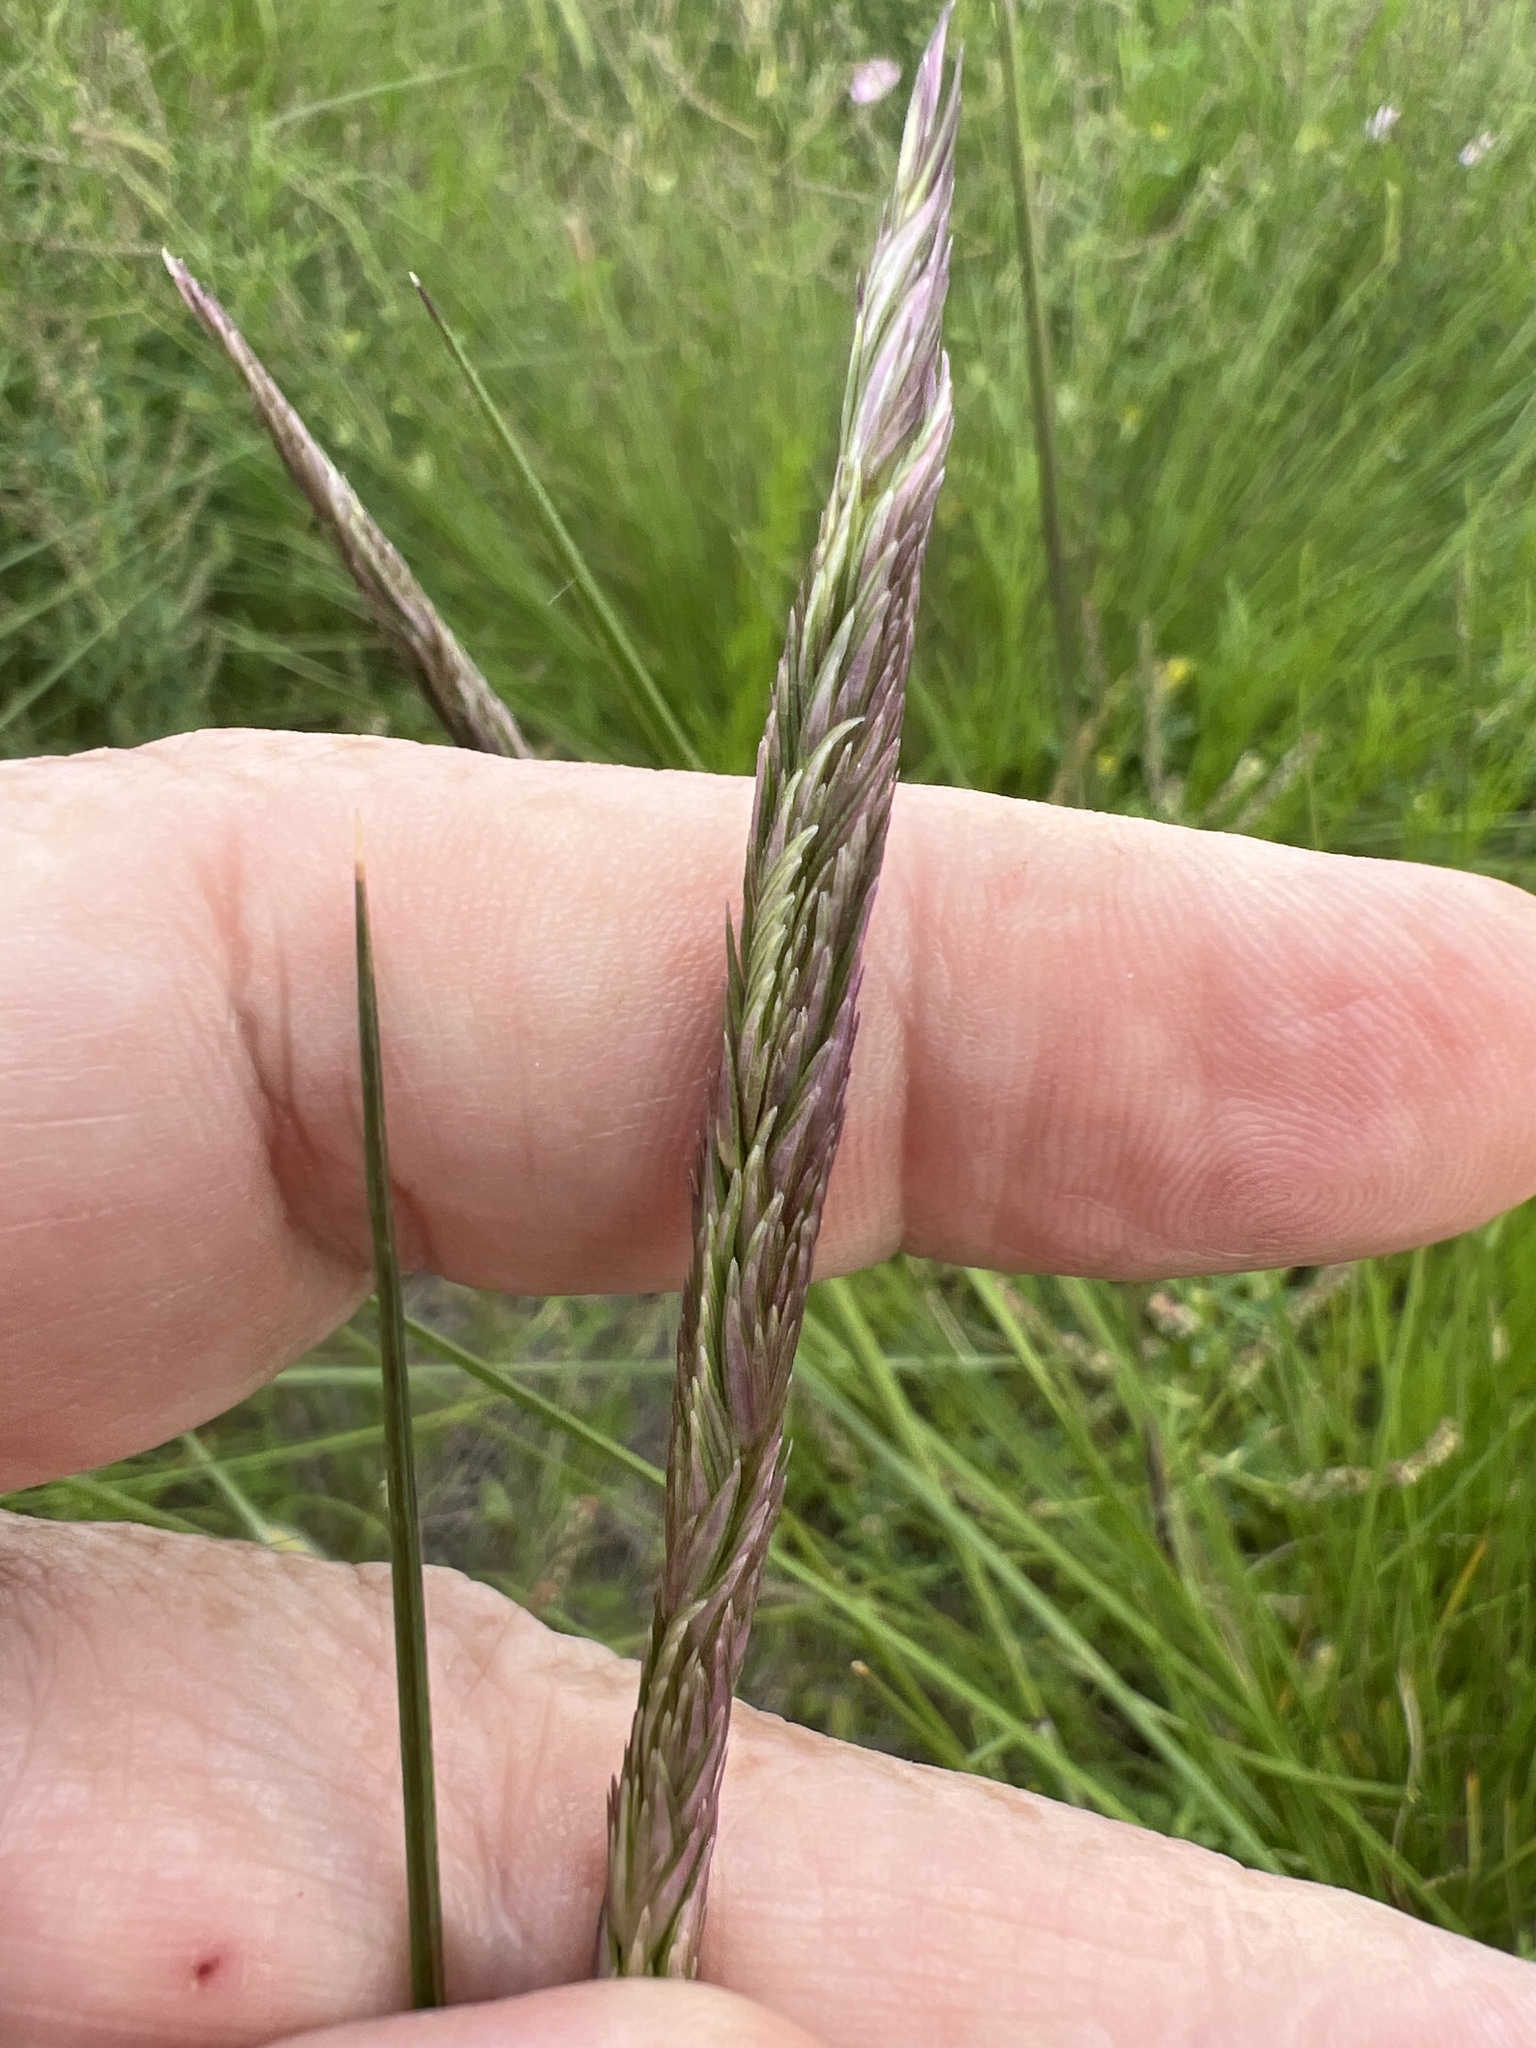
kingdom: Plantae
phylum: Tracheophyta
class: Liliopsida
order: Poales
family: Poaceae
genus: Sporobolus
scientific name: Sporobolus spartinae
